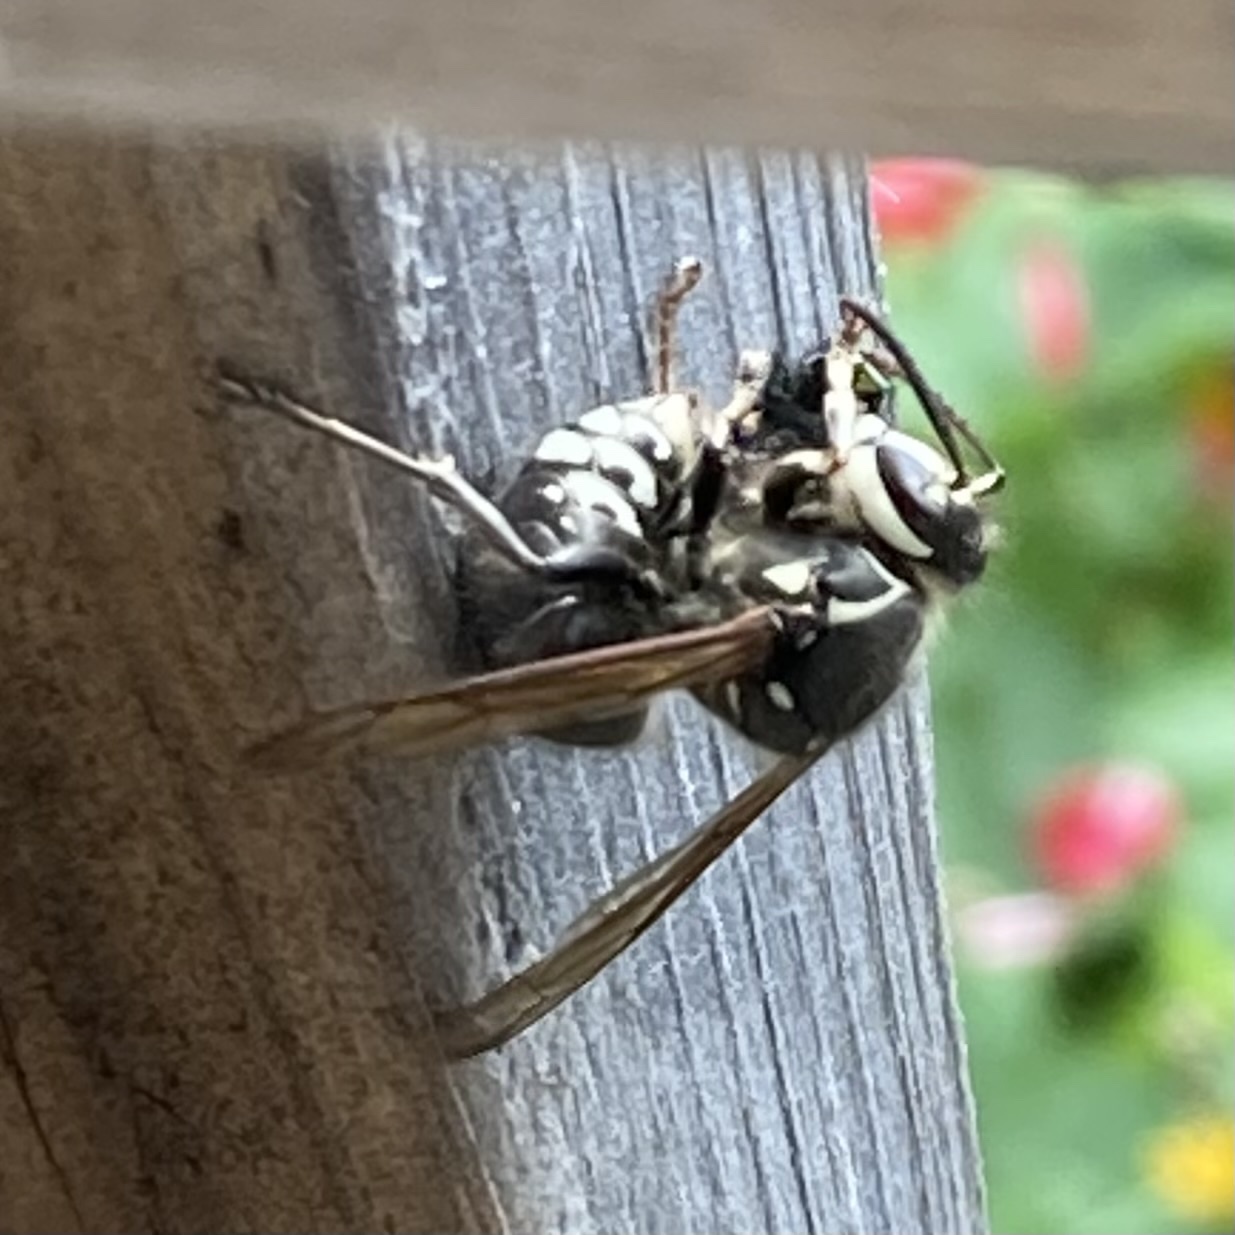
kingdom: Animalia
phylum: Arthropoda
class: Insecta
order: Hymenoptera
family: Vespidae
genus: Dolichovespula
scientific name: Dolichovespula maculata
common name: Bald-faced hornet
